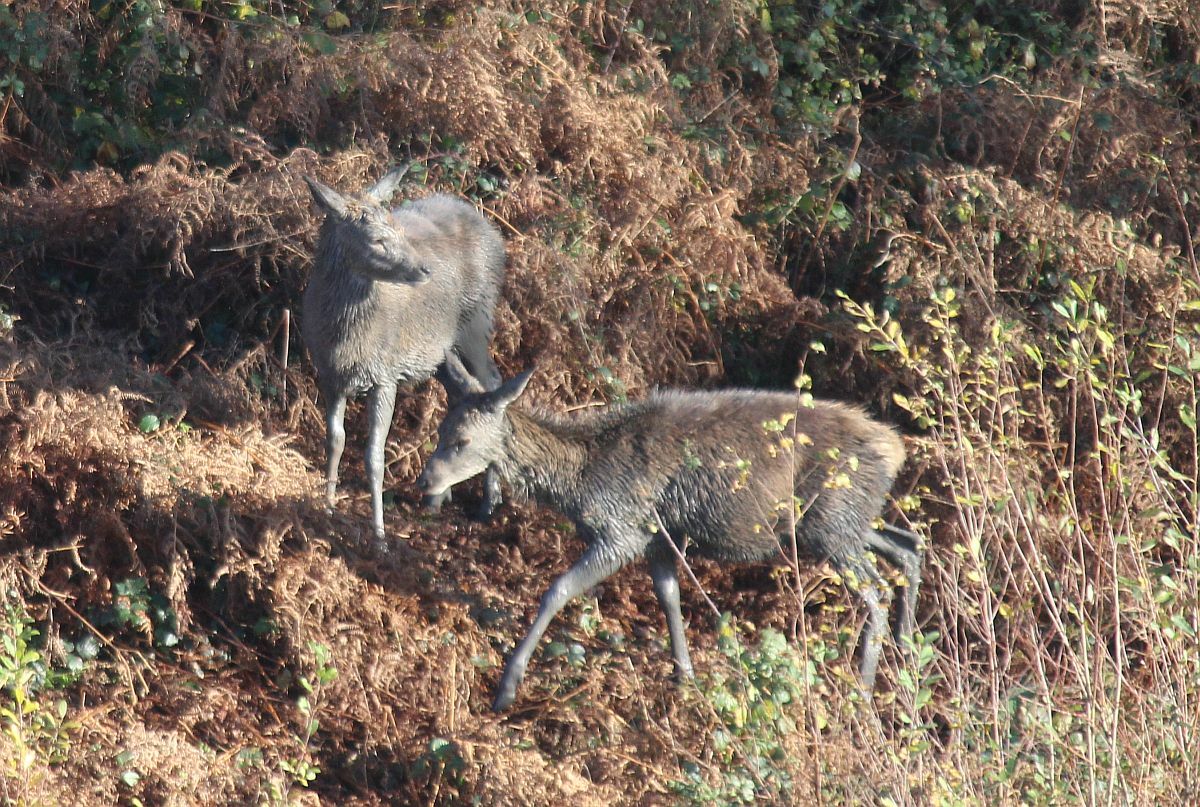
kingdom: Animalia
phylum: Chordata
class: Mammalia
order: Artiodactyla
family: Cervidae
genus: Cervus
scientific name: Cervus elaphus
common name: Red deer
